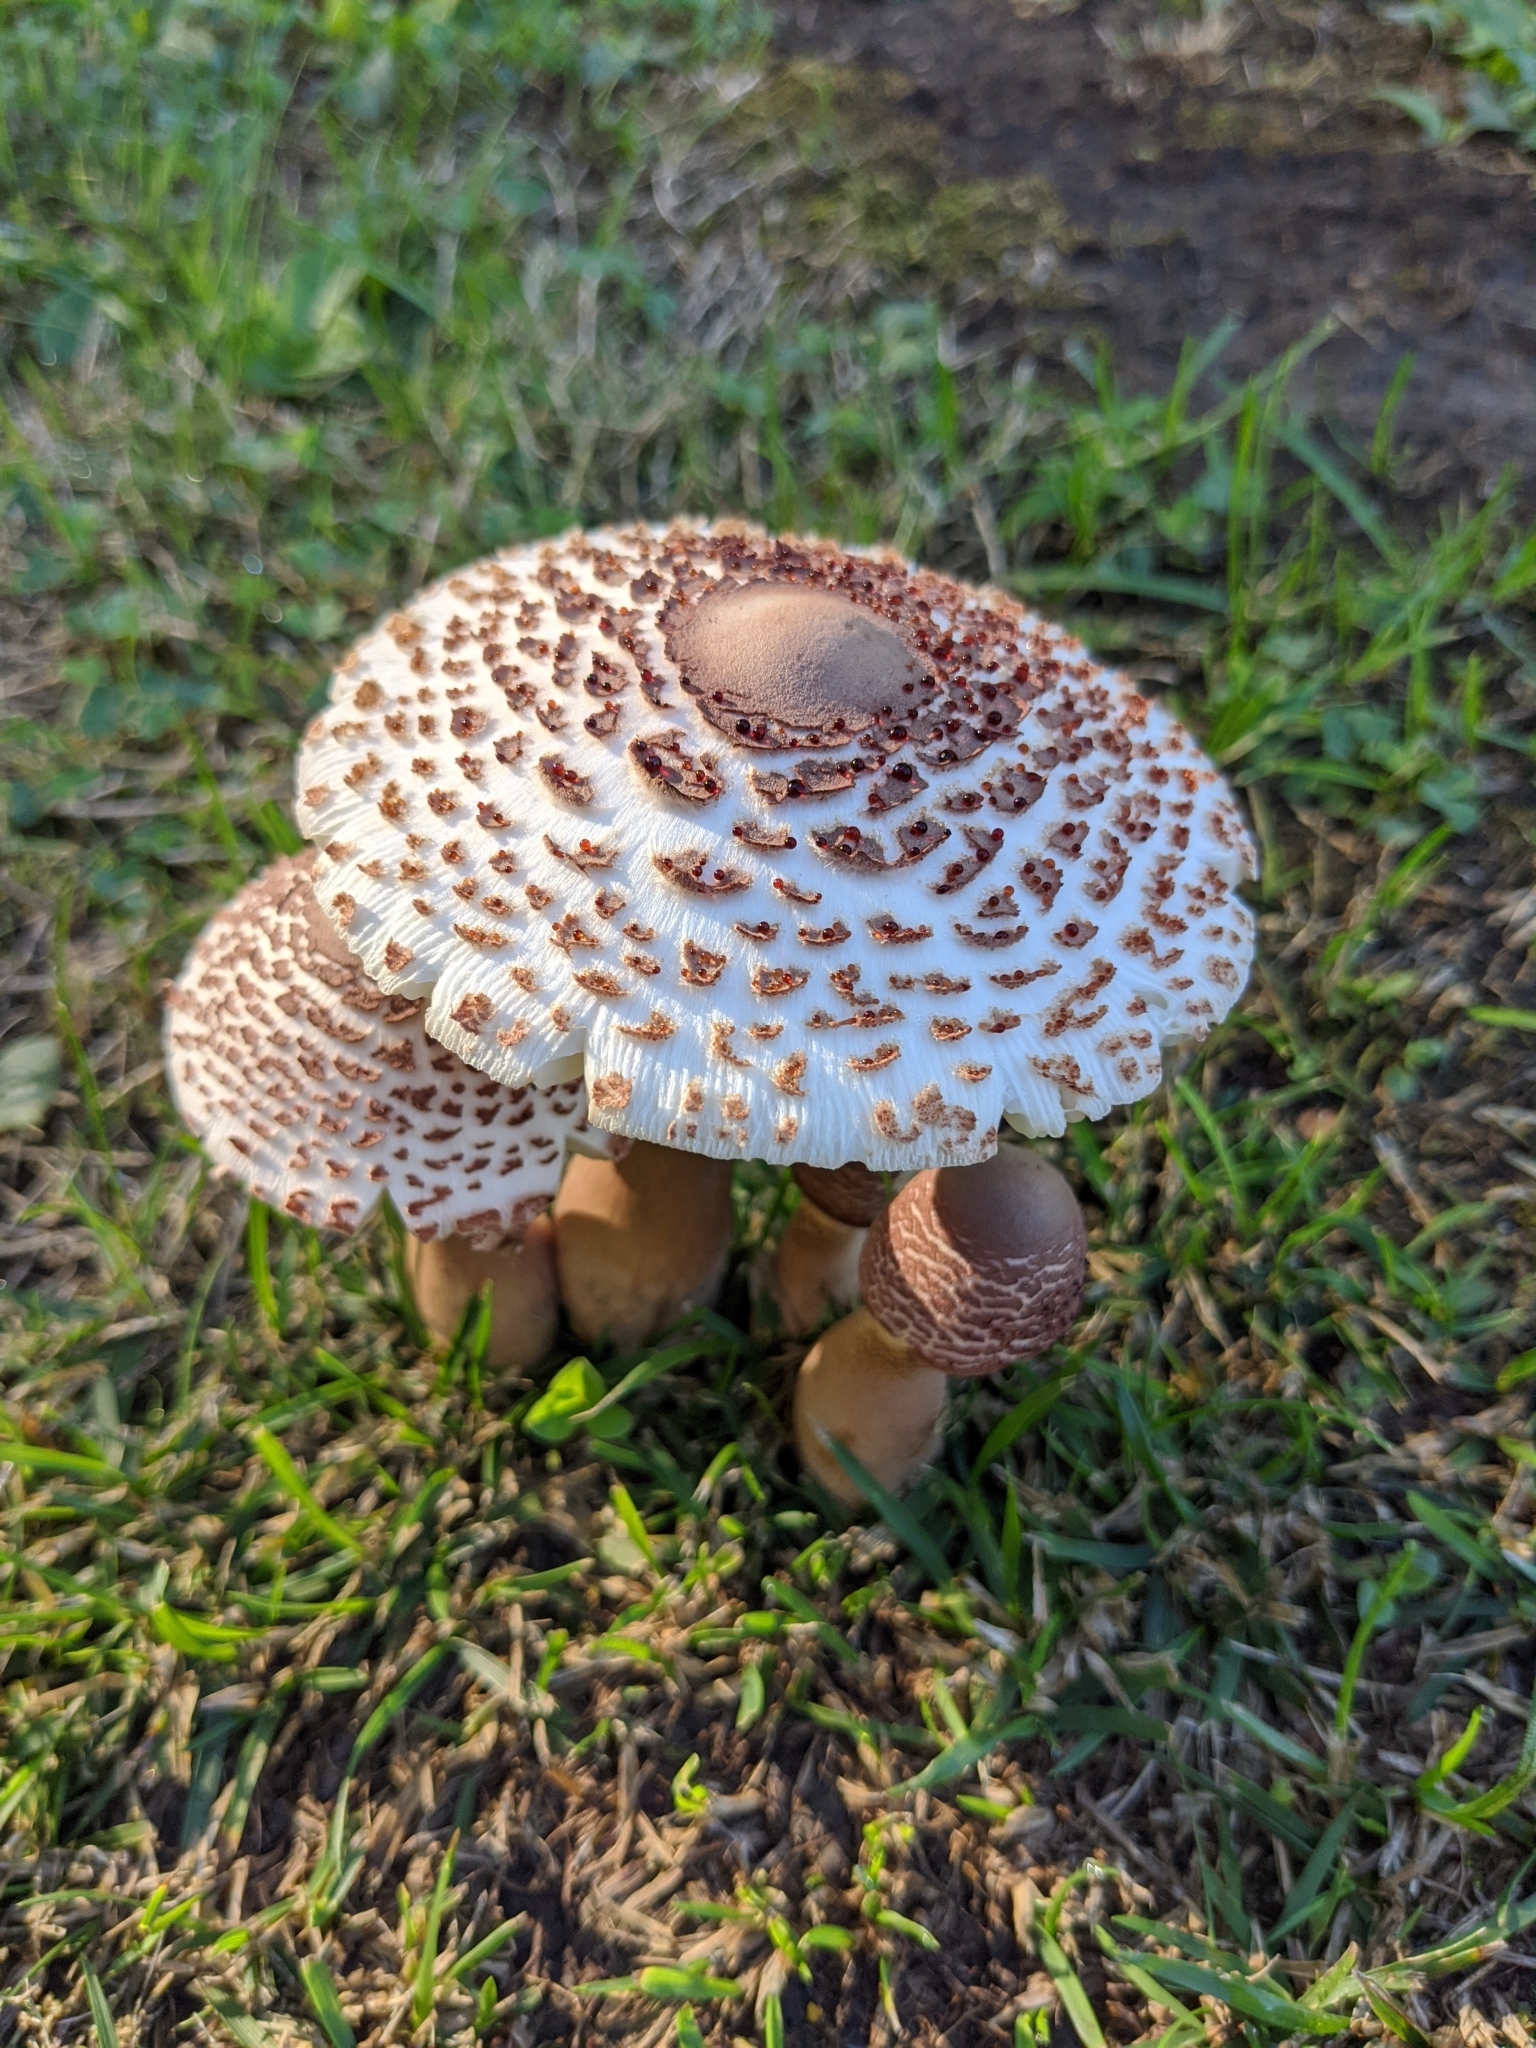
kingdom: Fungi
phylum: Basidiomycota
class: Agaricomycetes
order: Agaricales
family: Agaricaceae
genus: Leucoagaricus
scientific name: Leucoagaricus americanus
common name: Reddening lepiota
